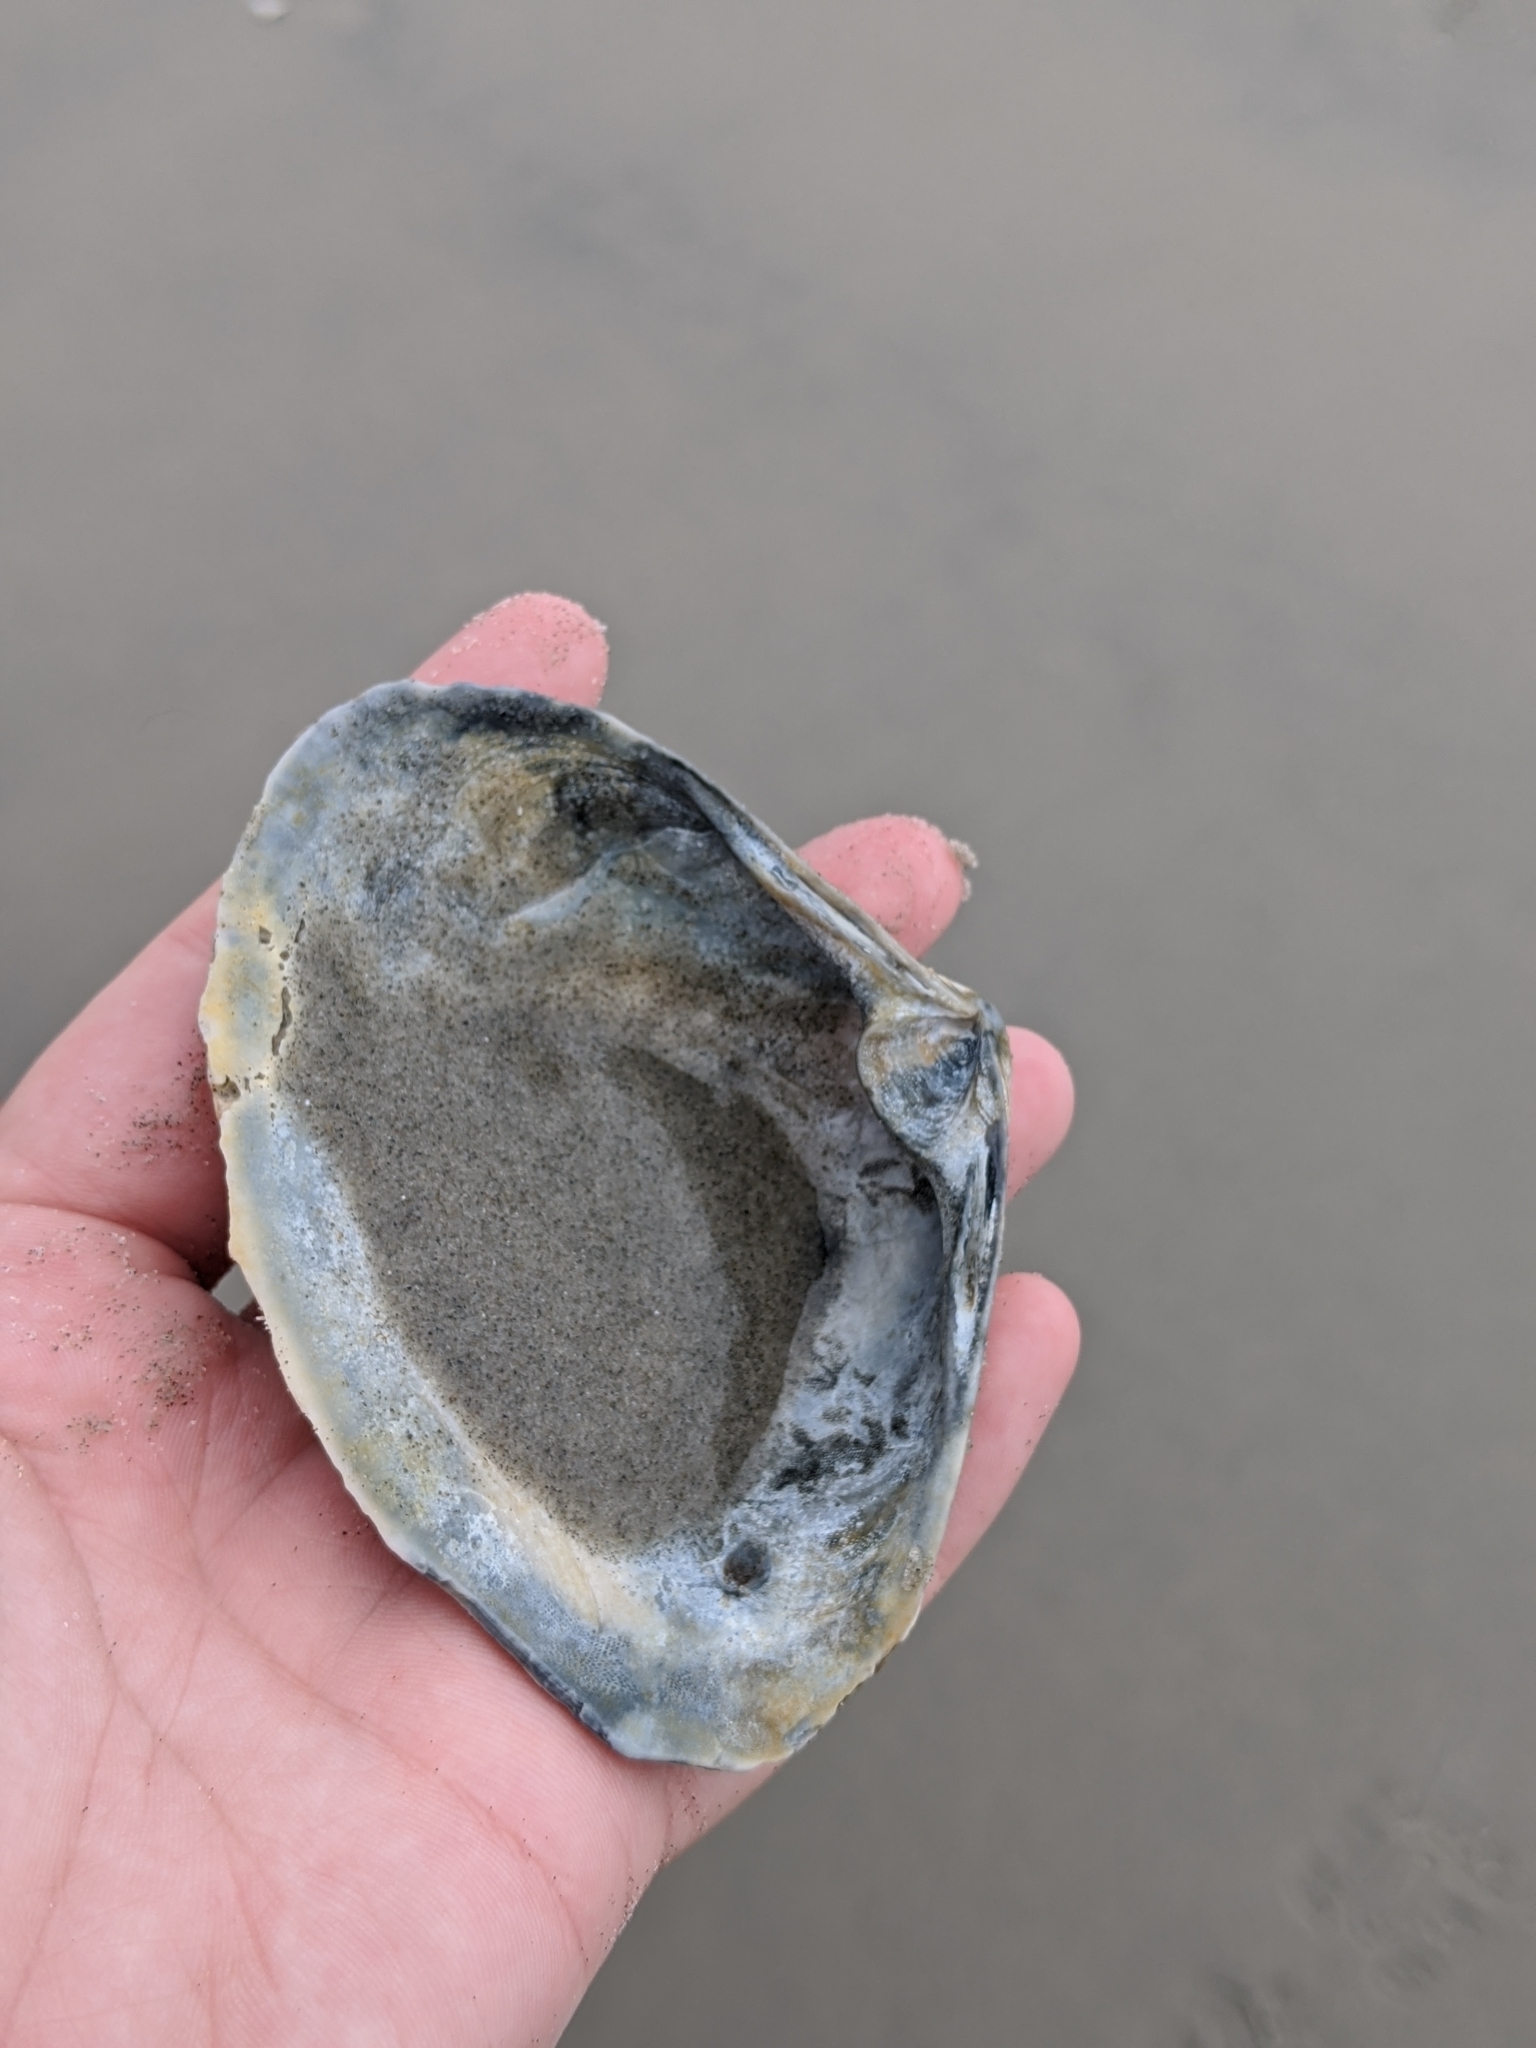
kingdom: Animalia
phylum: Mollusca
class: Bivalvia
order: Venerida
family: Mactridae
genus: Spisula
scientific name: Spisula solidissima
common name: Atlantic surf clam
